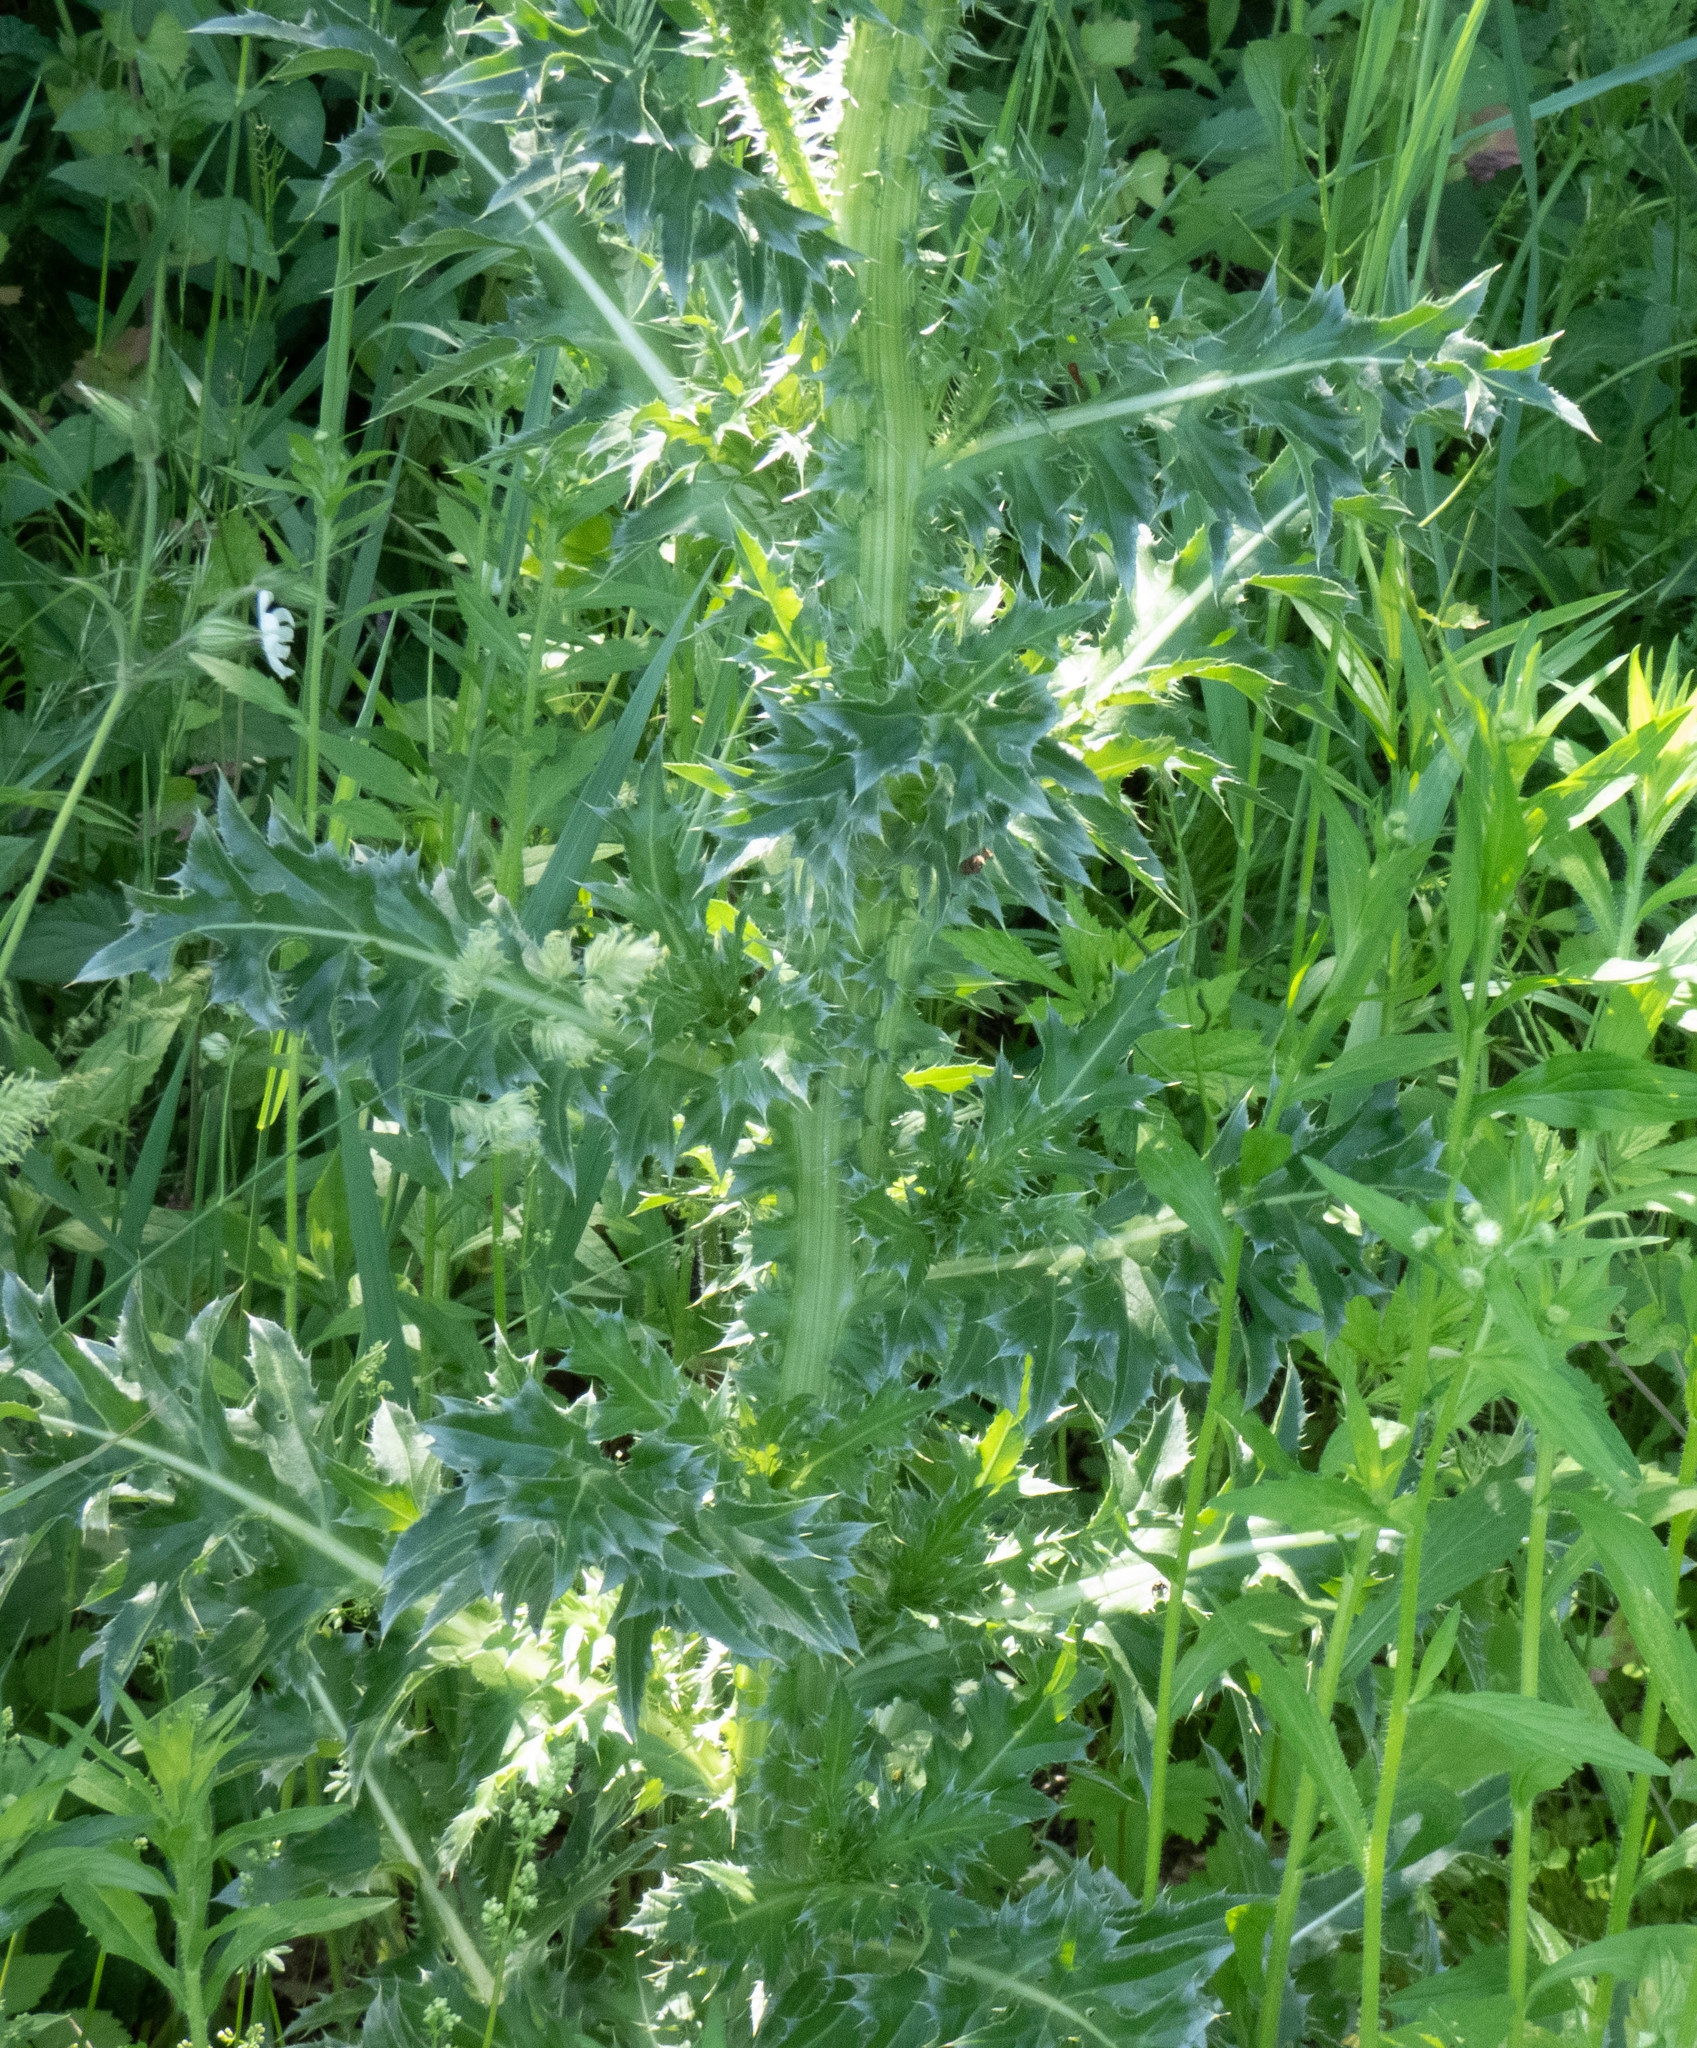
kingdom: Plantae
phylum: Tracheophyta
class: Magnoliopsida
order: Asterales
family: Asteraceae
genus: Carduus
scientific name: Carduus nutans
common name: Musk thistle
